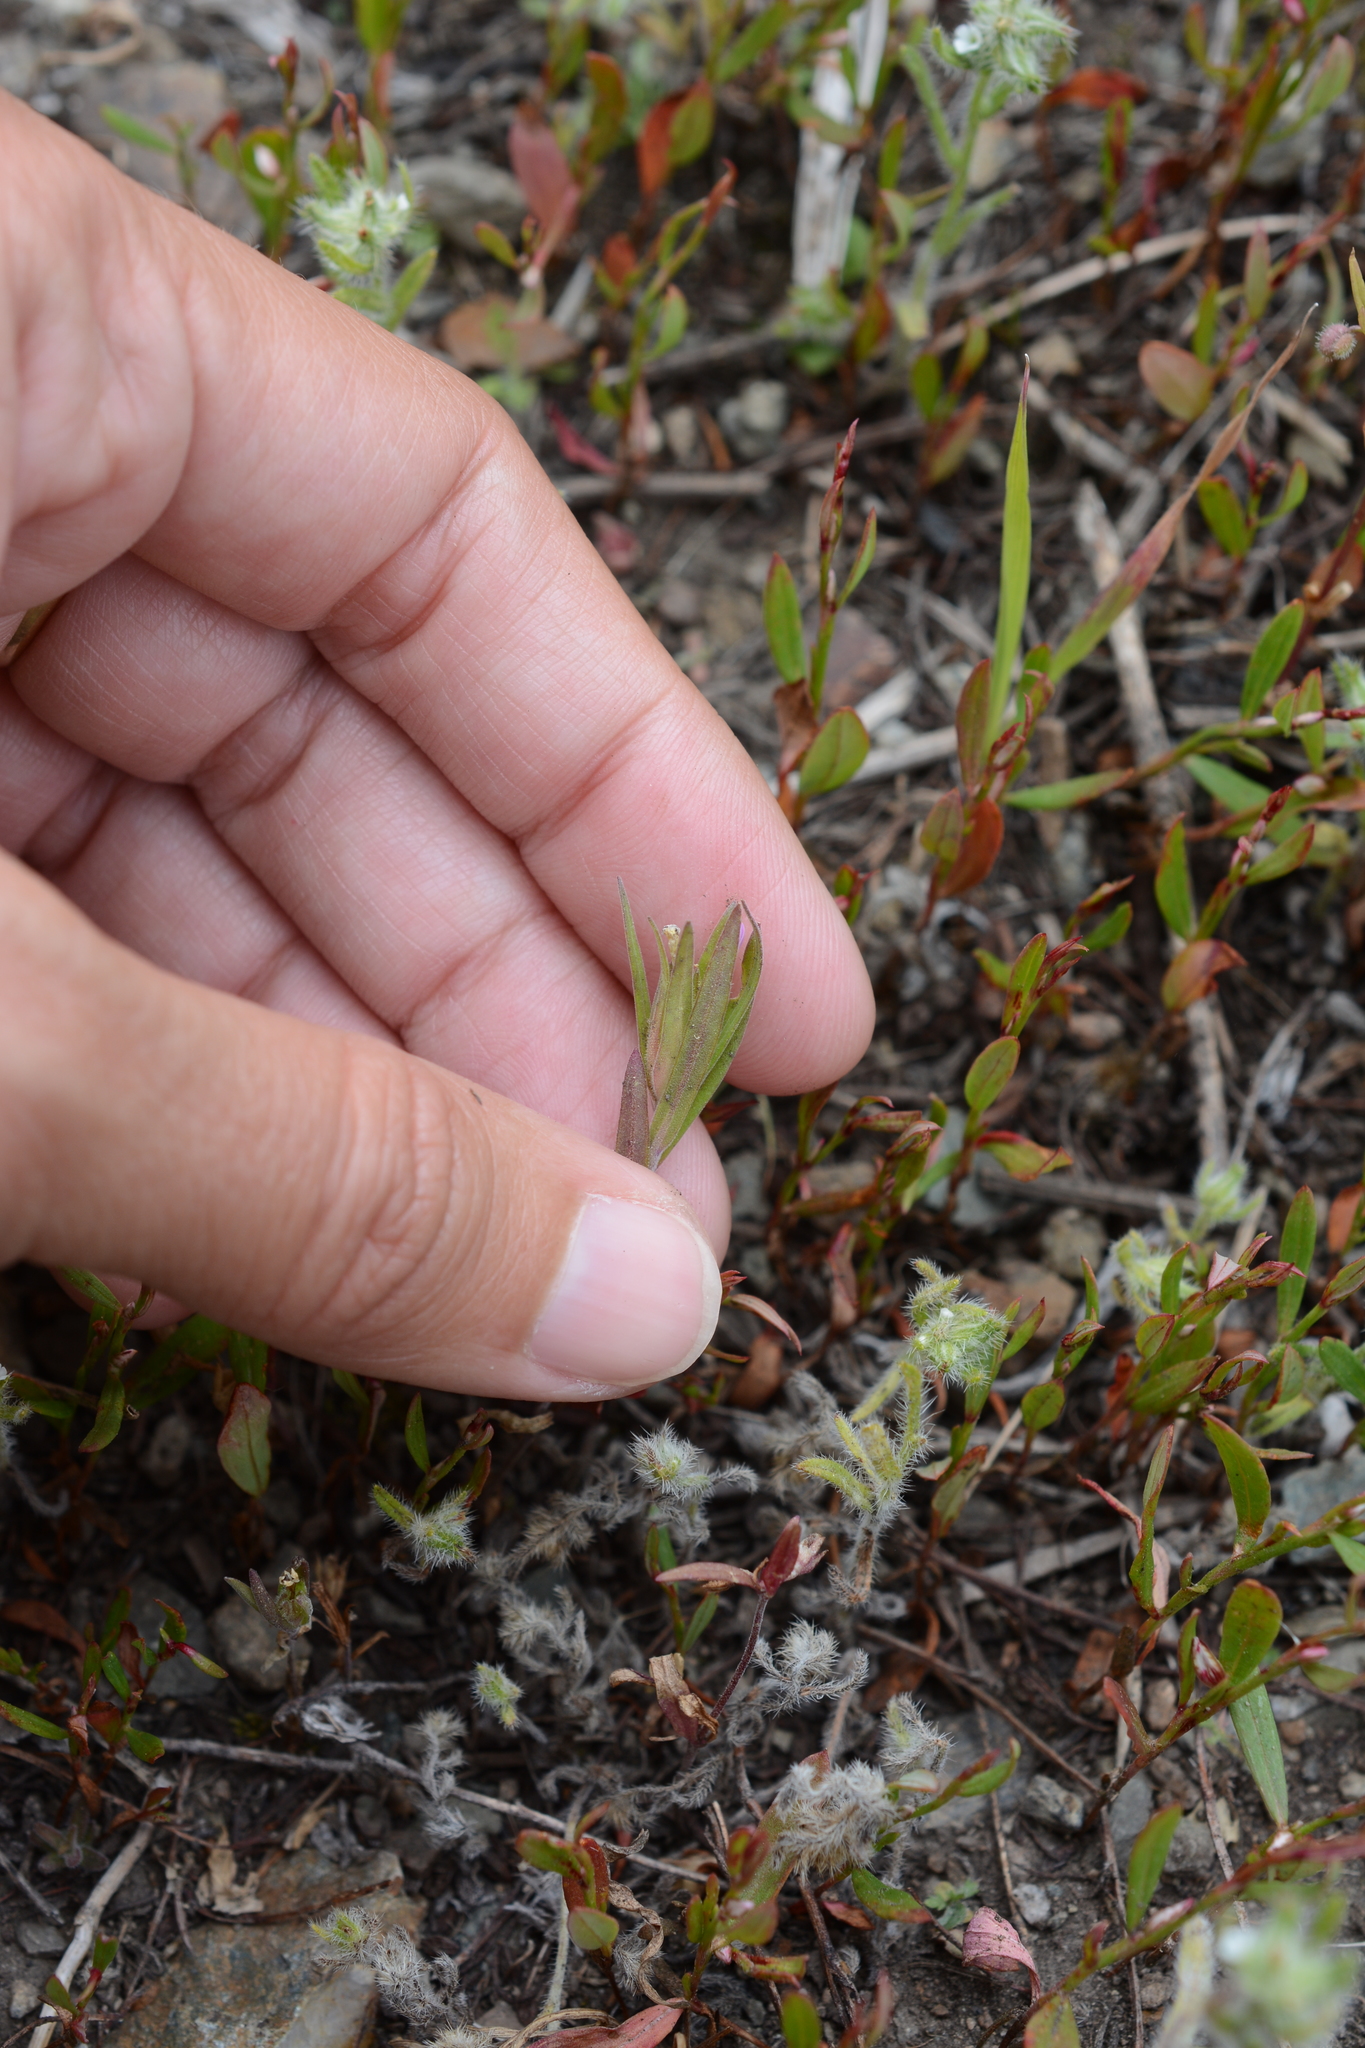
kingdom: Plantae
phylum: Tracheophyta
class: Magnoliopsida
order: Ericales
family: Polemoniaceae
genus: Collomia
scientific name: Collomia linearis
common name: Tiny trumpet
